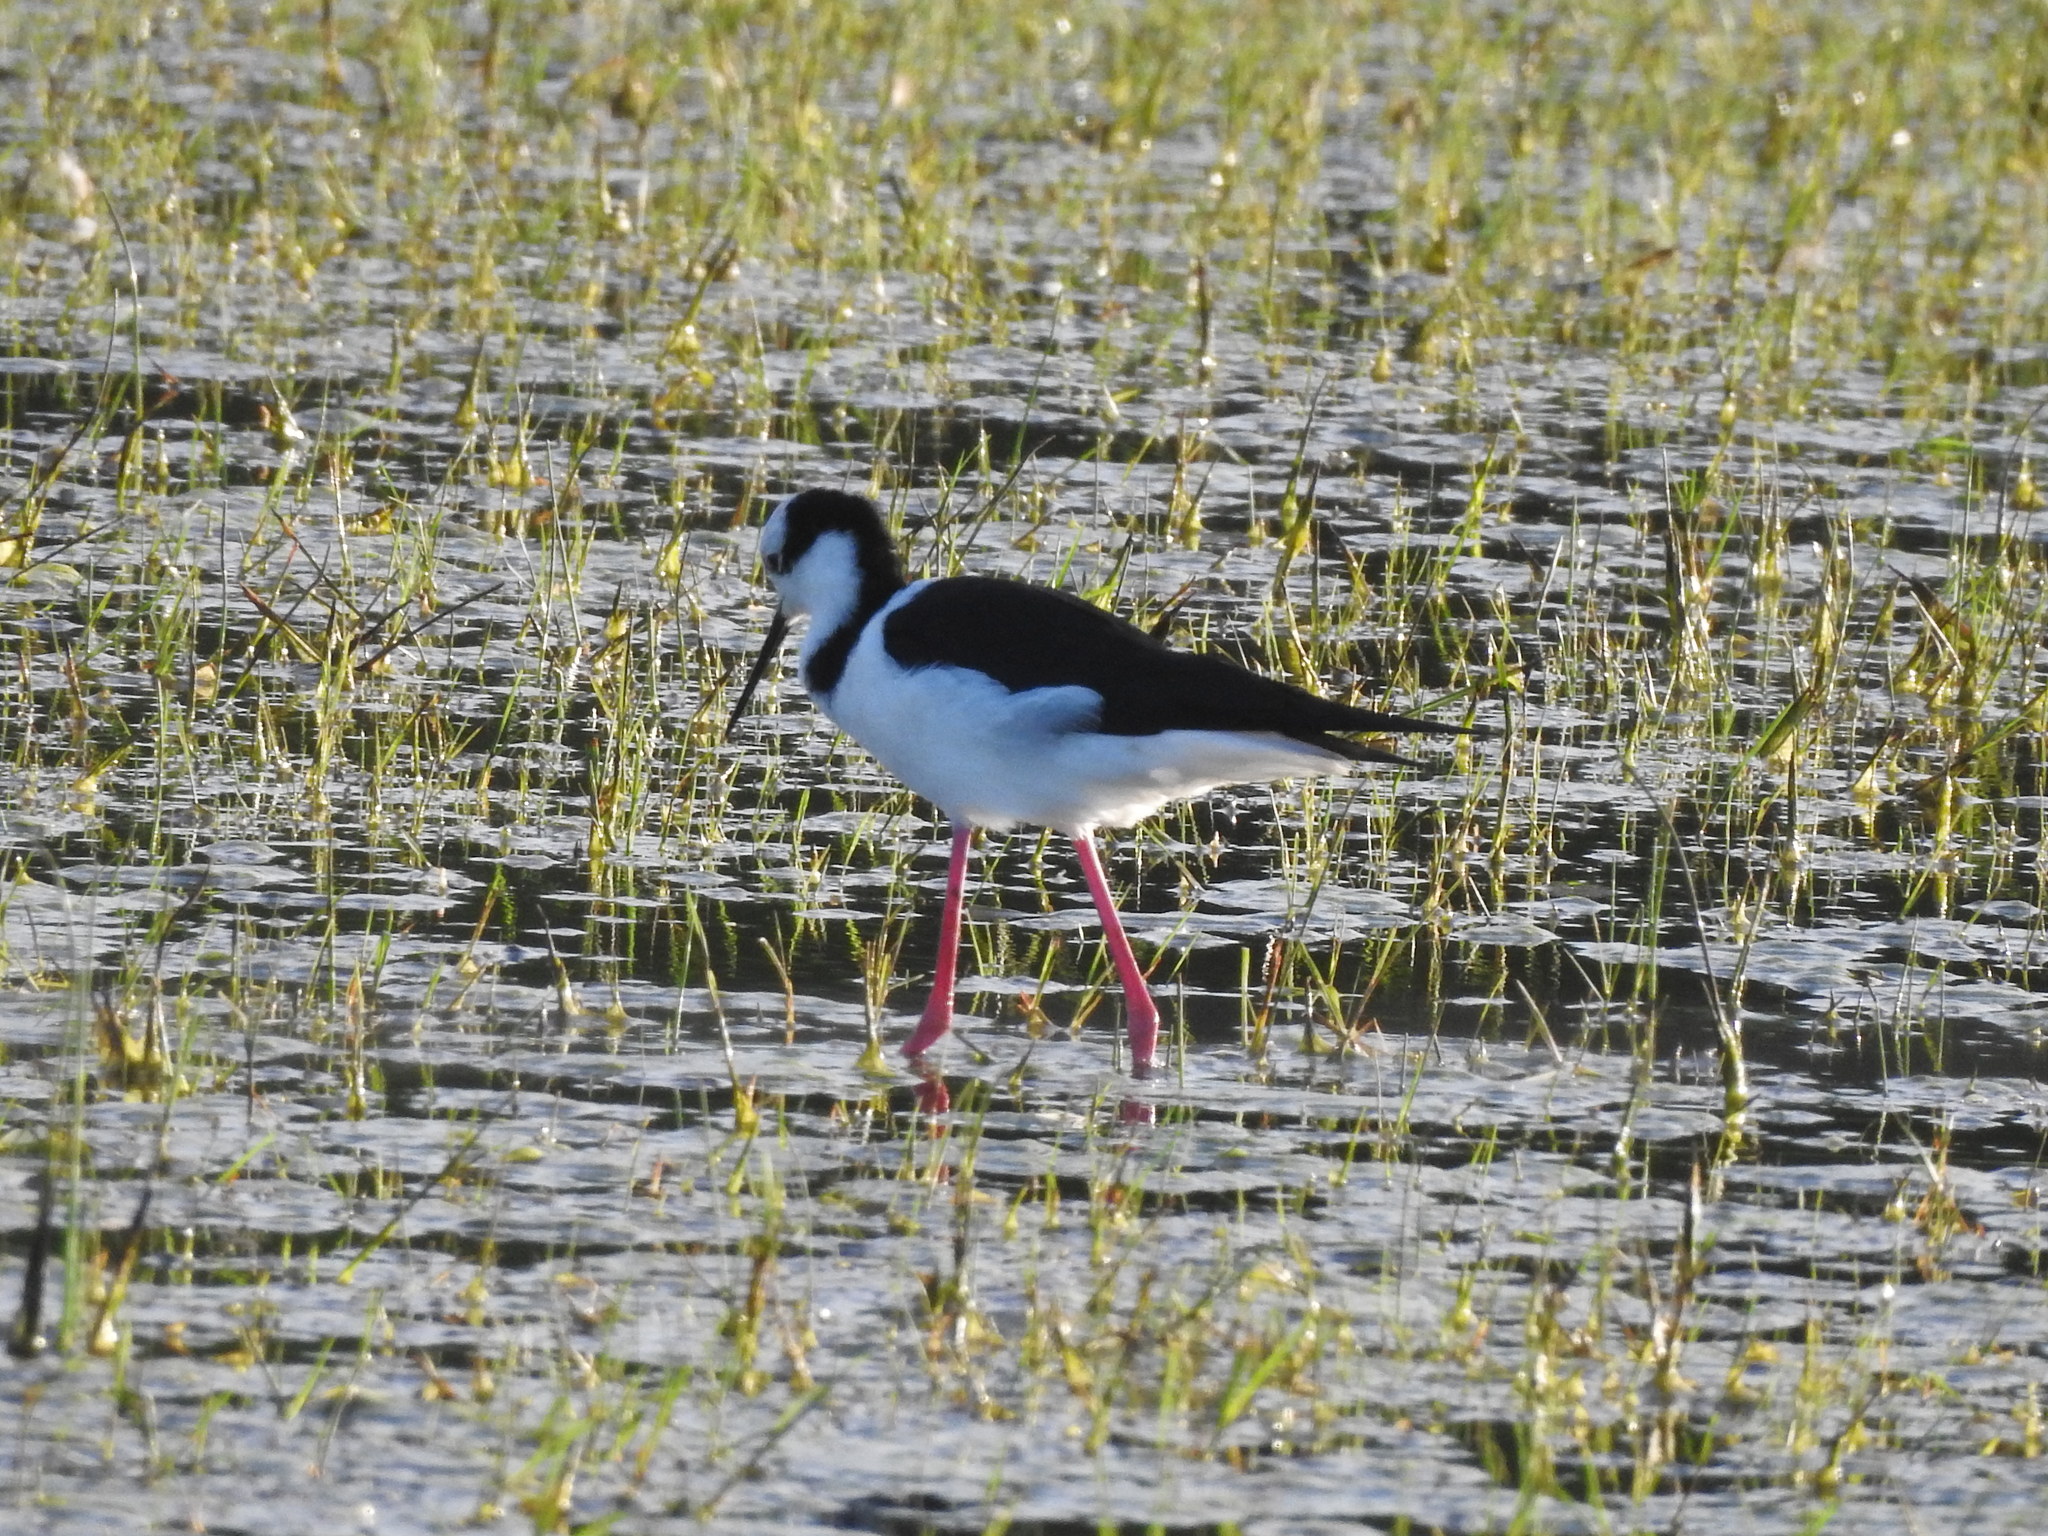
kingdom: Animalia
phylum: Chordata
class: Aves
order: Charadriiformes
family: Recurvirostridae
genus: Himantopus
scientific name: Himantopus mexicanus
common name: Black-necked stilt
